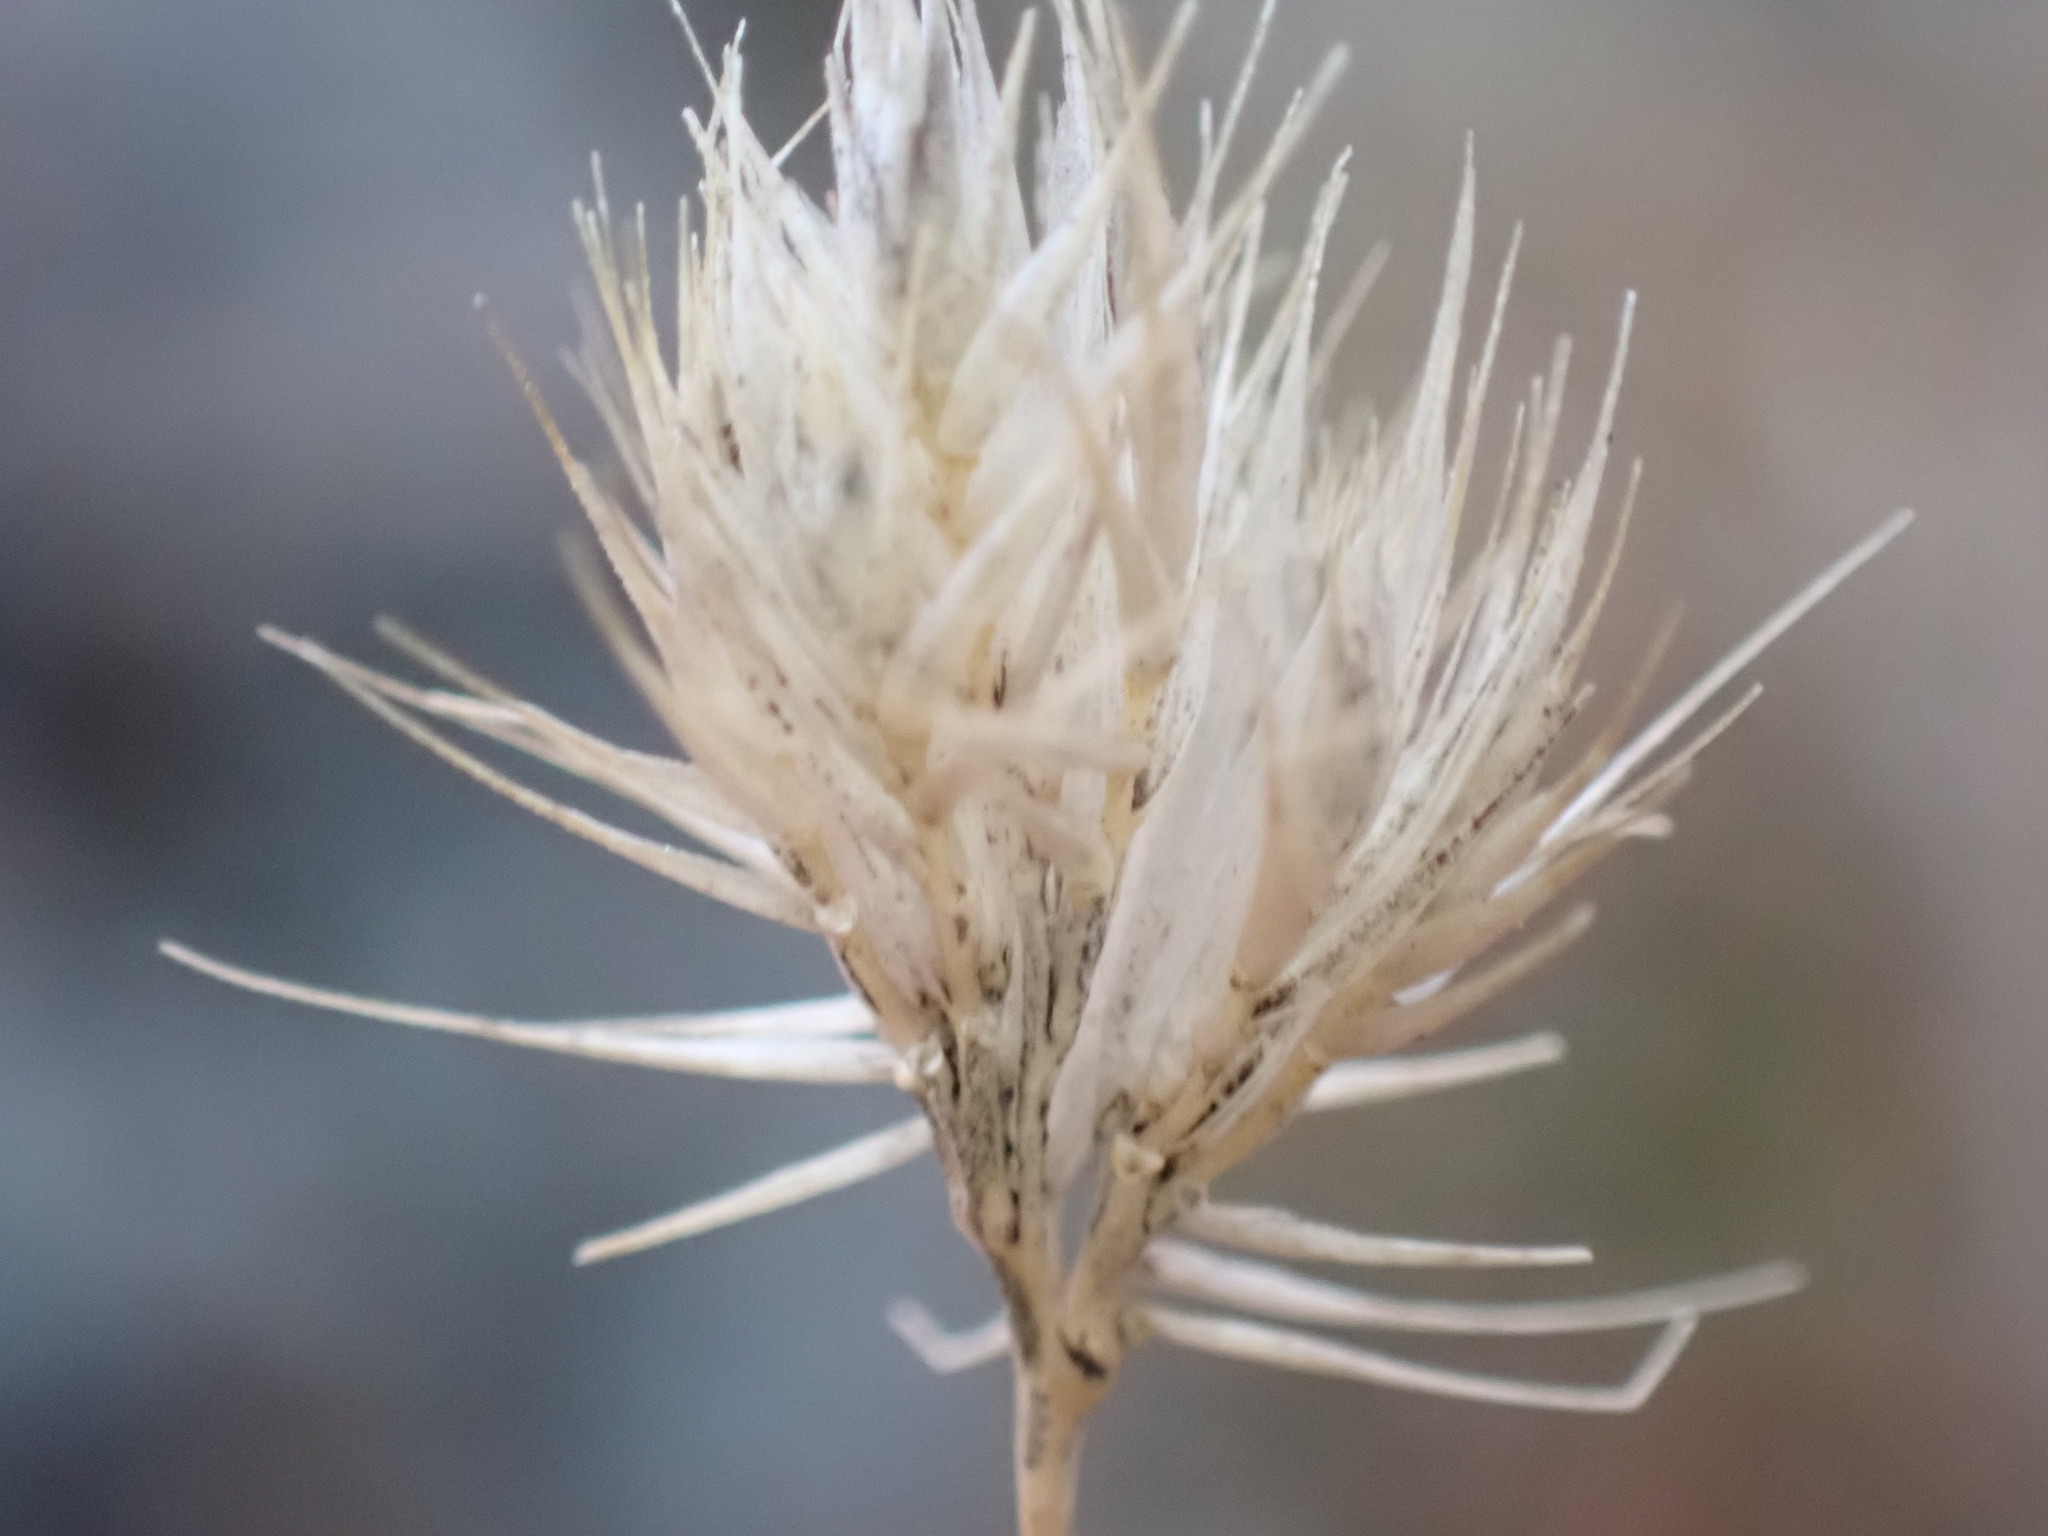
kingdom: Plantae
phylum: Tracheophyta
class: Liliopsida
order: Poales
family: Poaceae
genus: Cynosurus
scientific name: Cynosurus echinatus
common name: Rough dog's-tail
